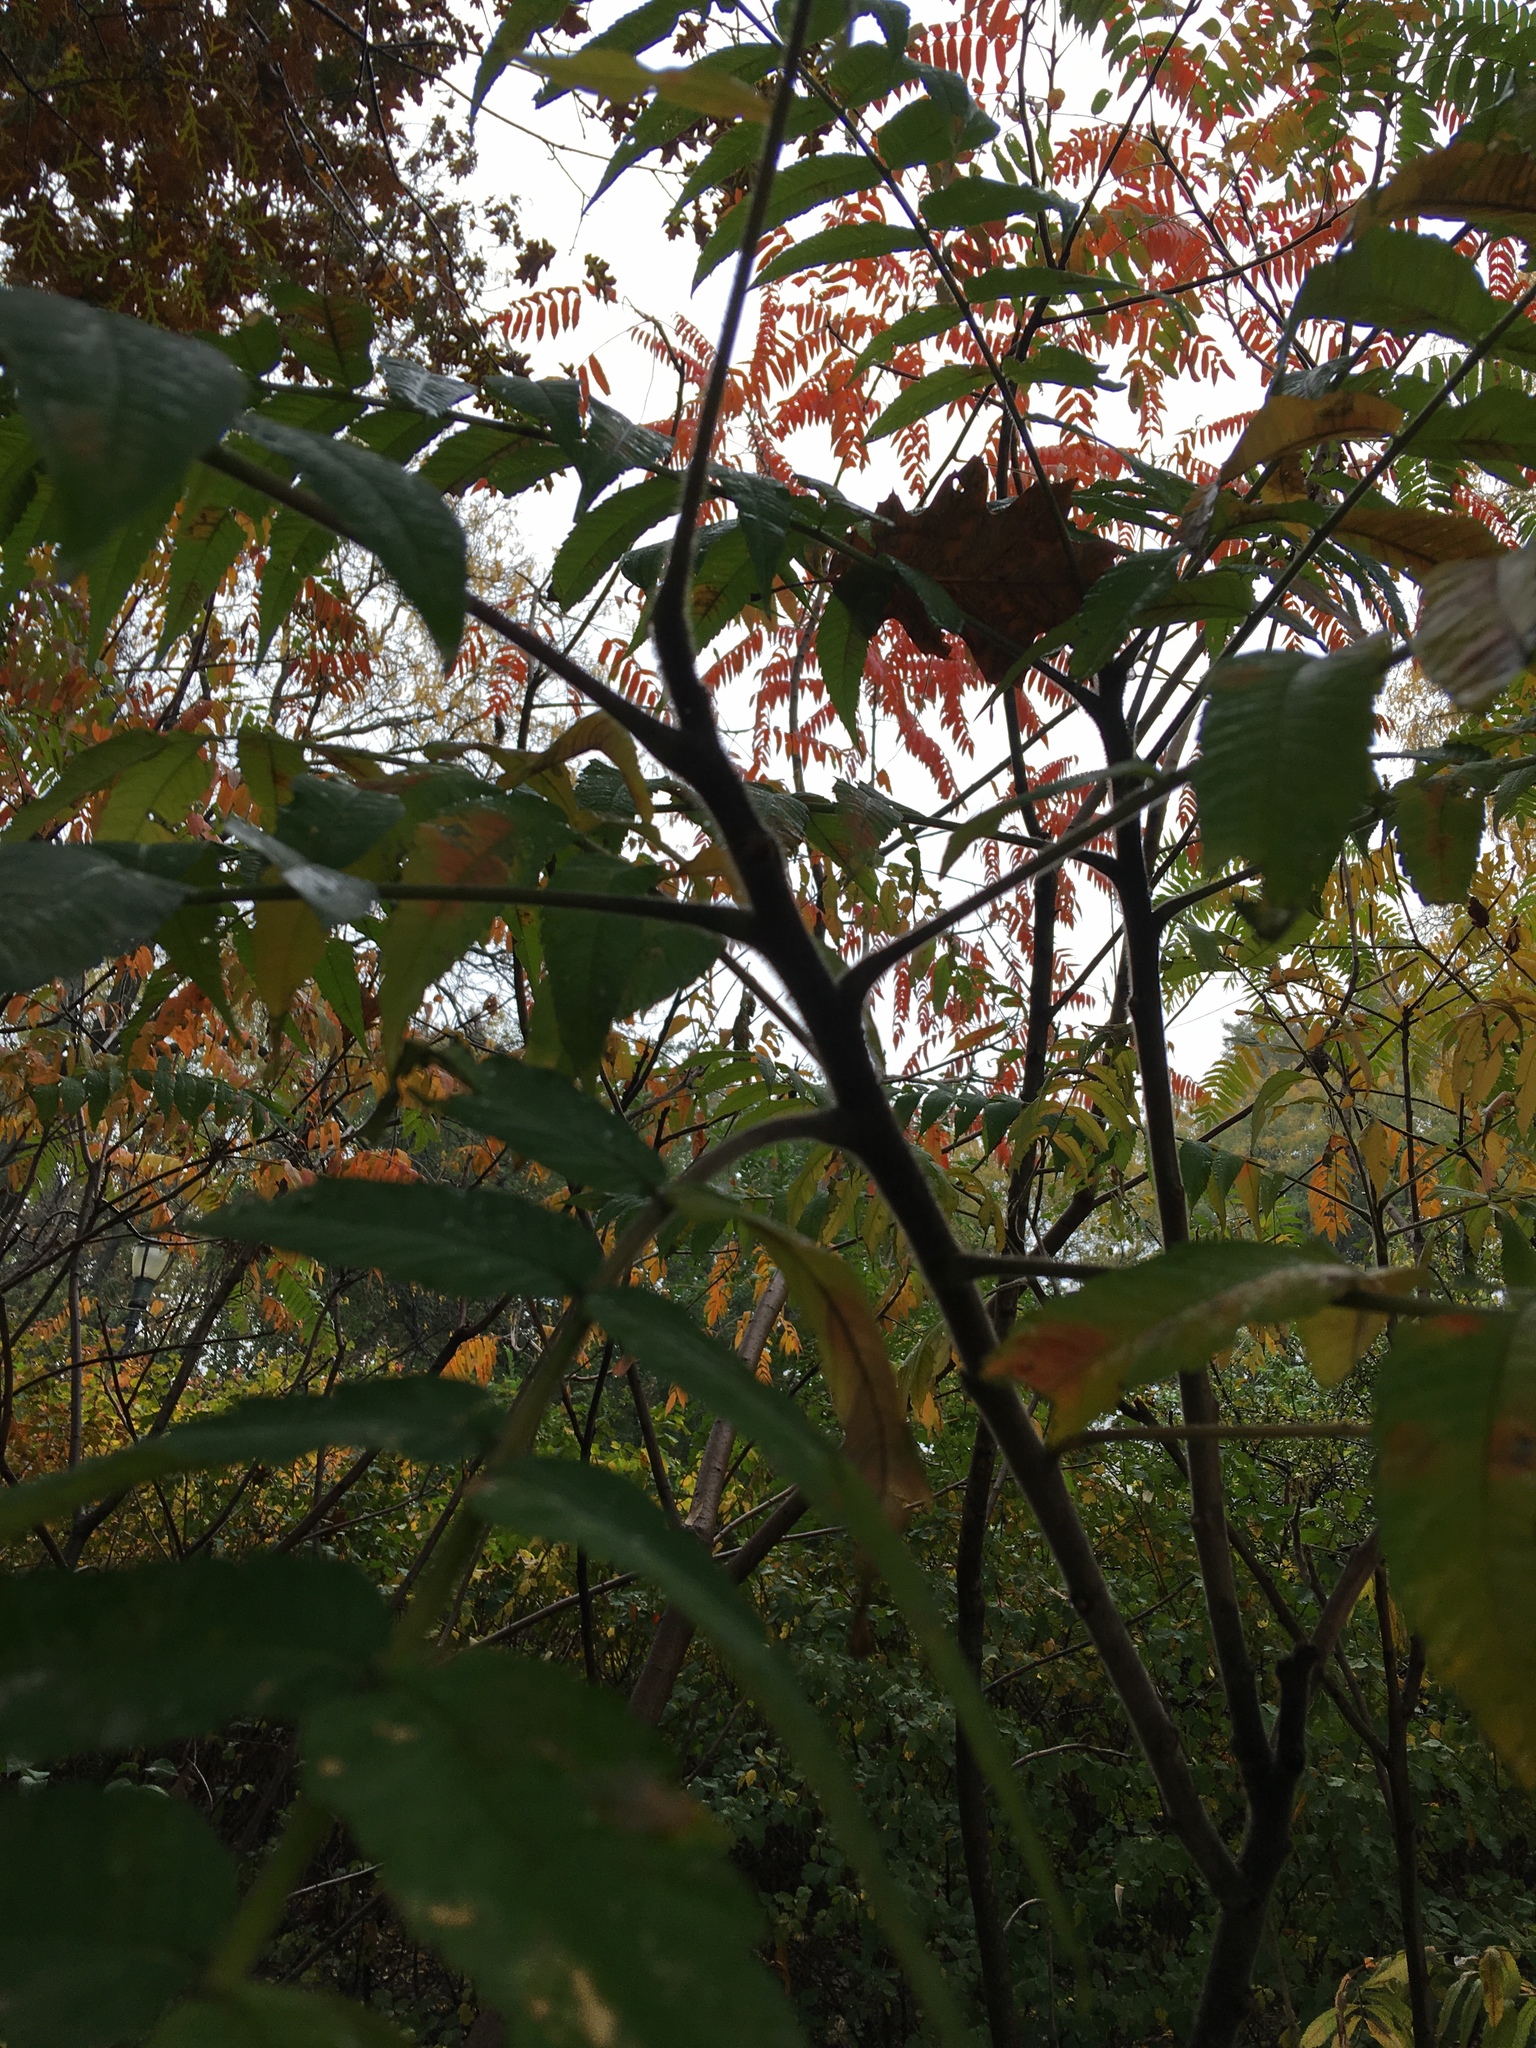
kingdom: Plantae
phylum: Tracheophyta
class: Magnoliopsida
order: Sapindales
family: Anacardiaceae
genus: Rhus
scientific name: Rhus typhina
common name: Staghorn sumac
